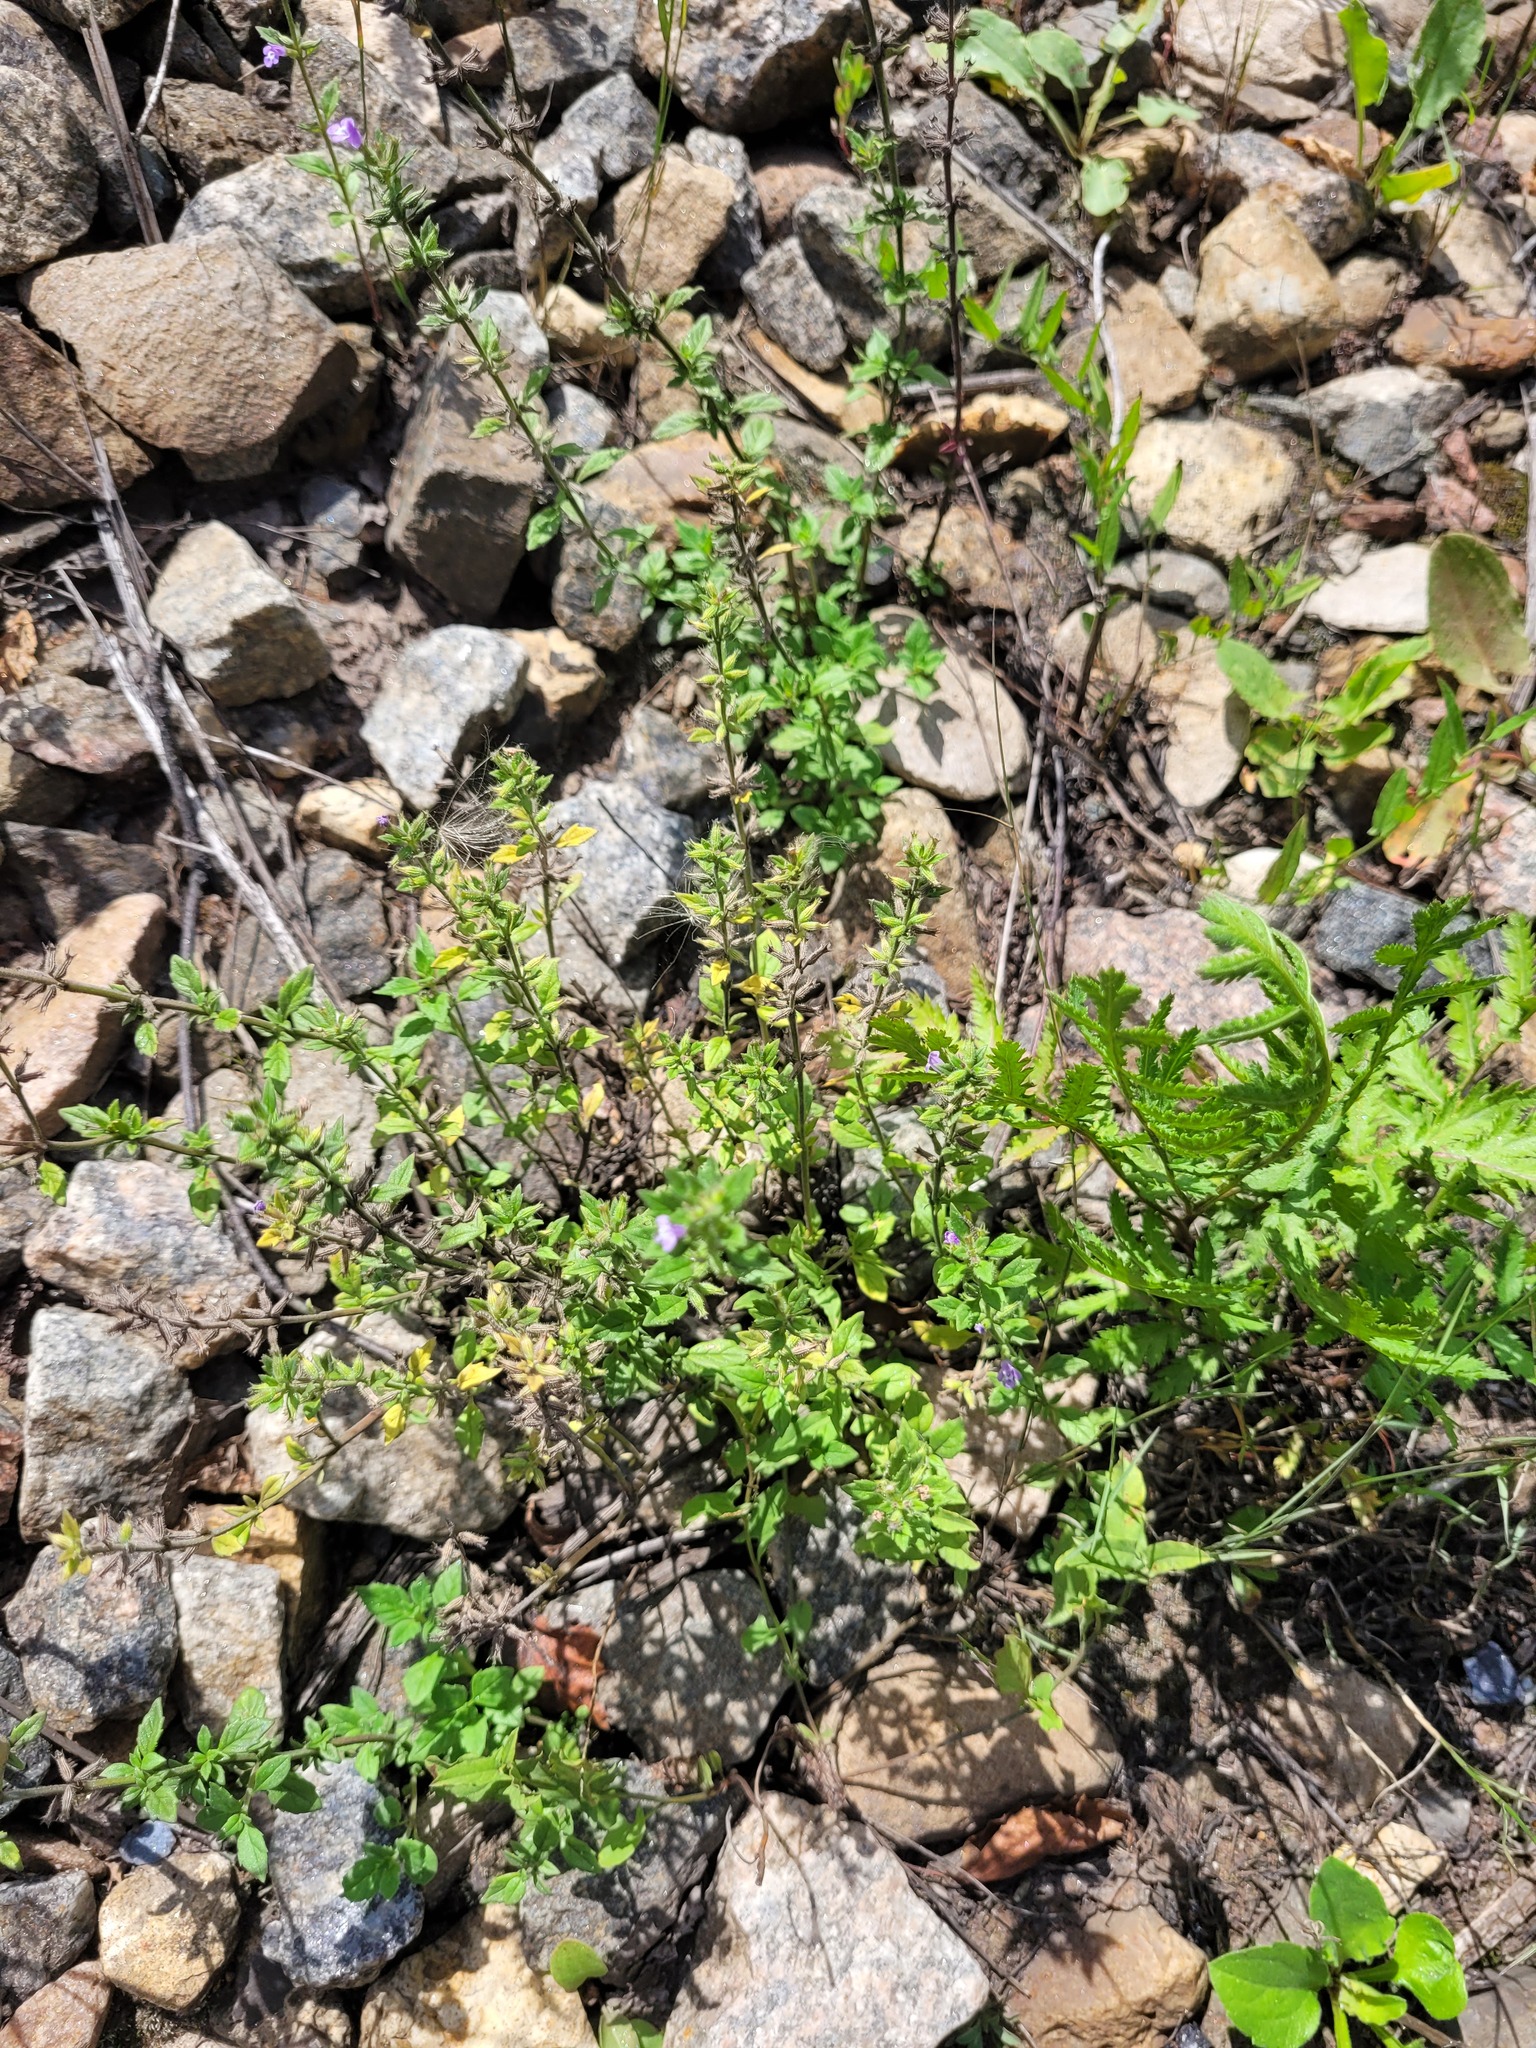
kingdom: Plantae
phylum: Tracheophyta
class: Magnoliopsida
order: Lamiales
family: Lamiaceae
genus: Clinopodium
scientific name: Clinopodium acinos
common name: Basil thyme
